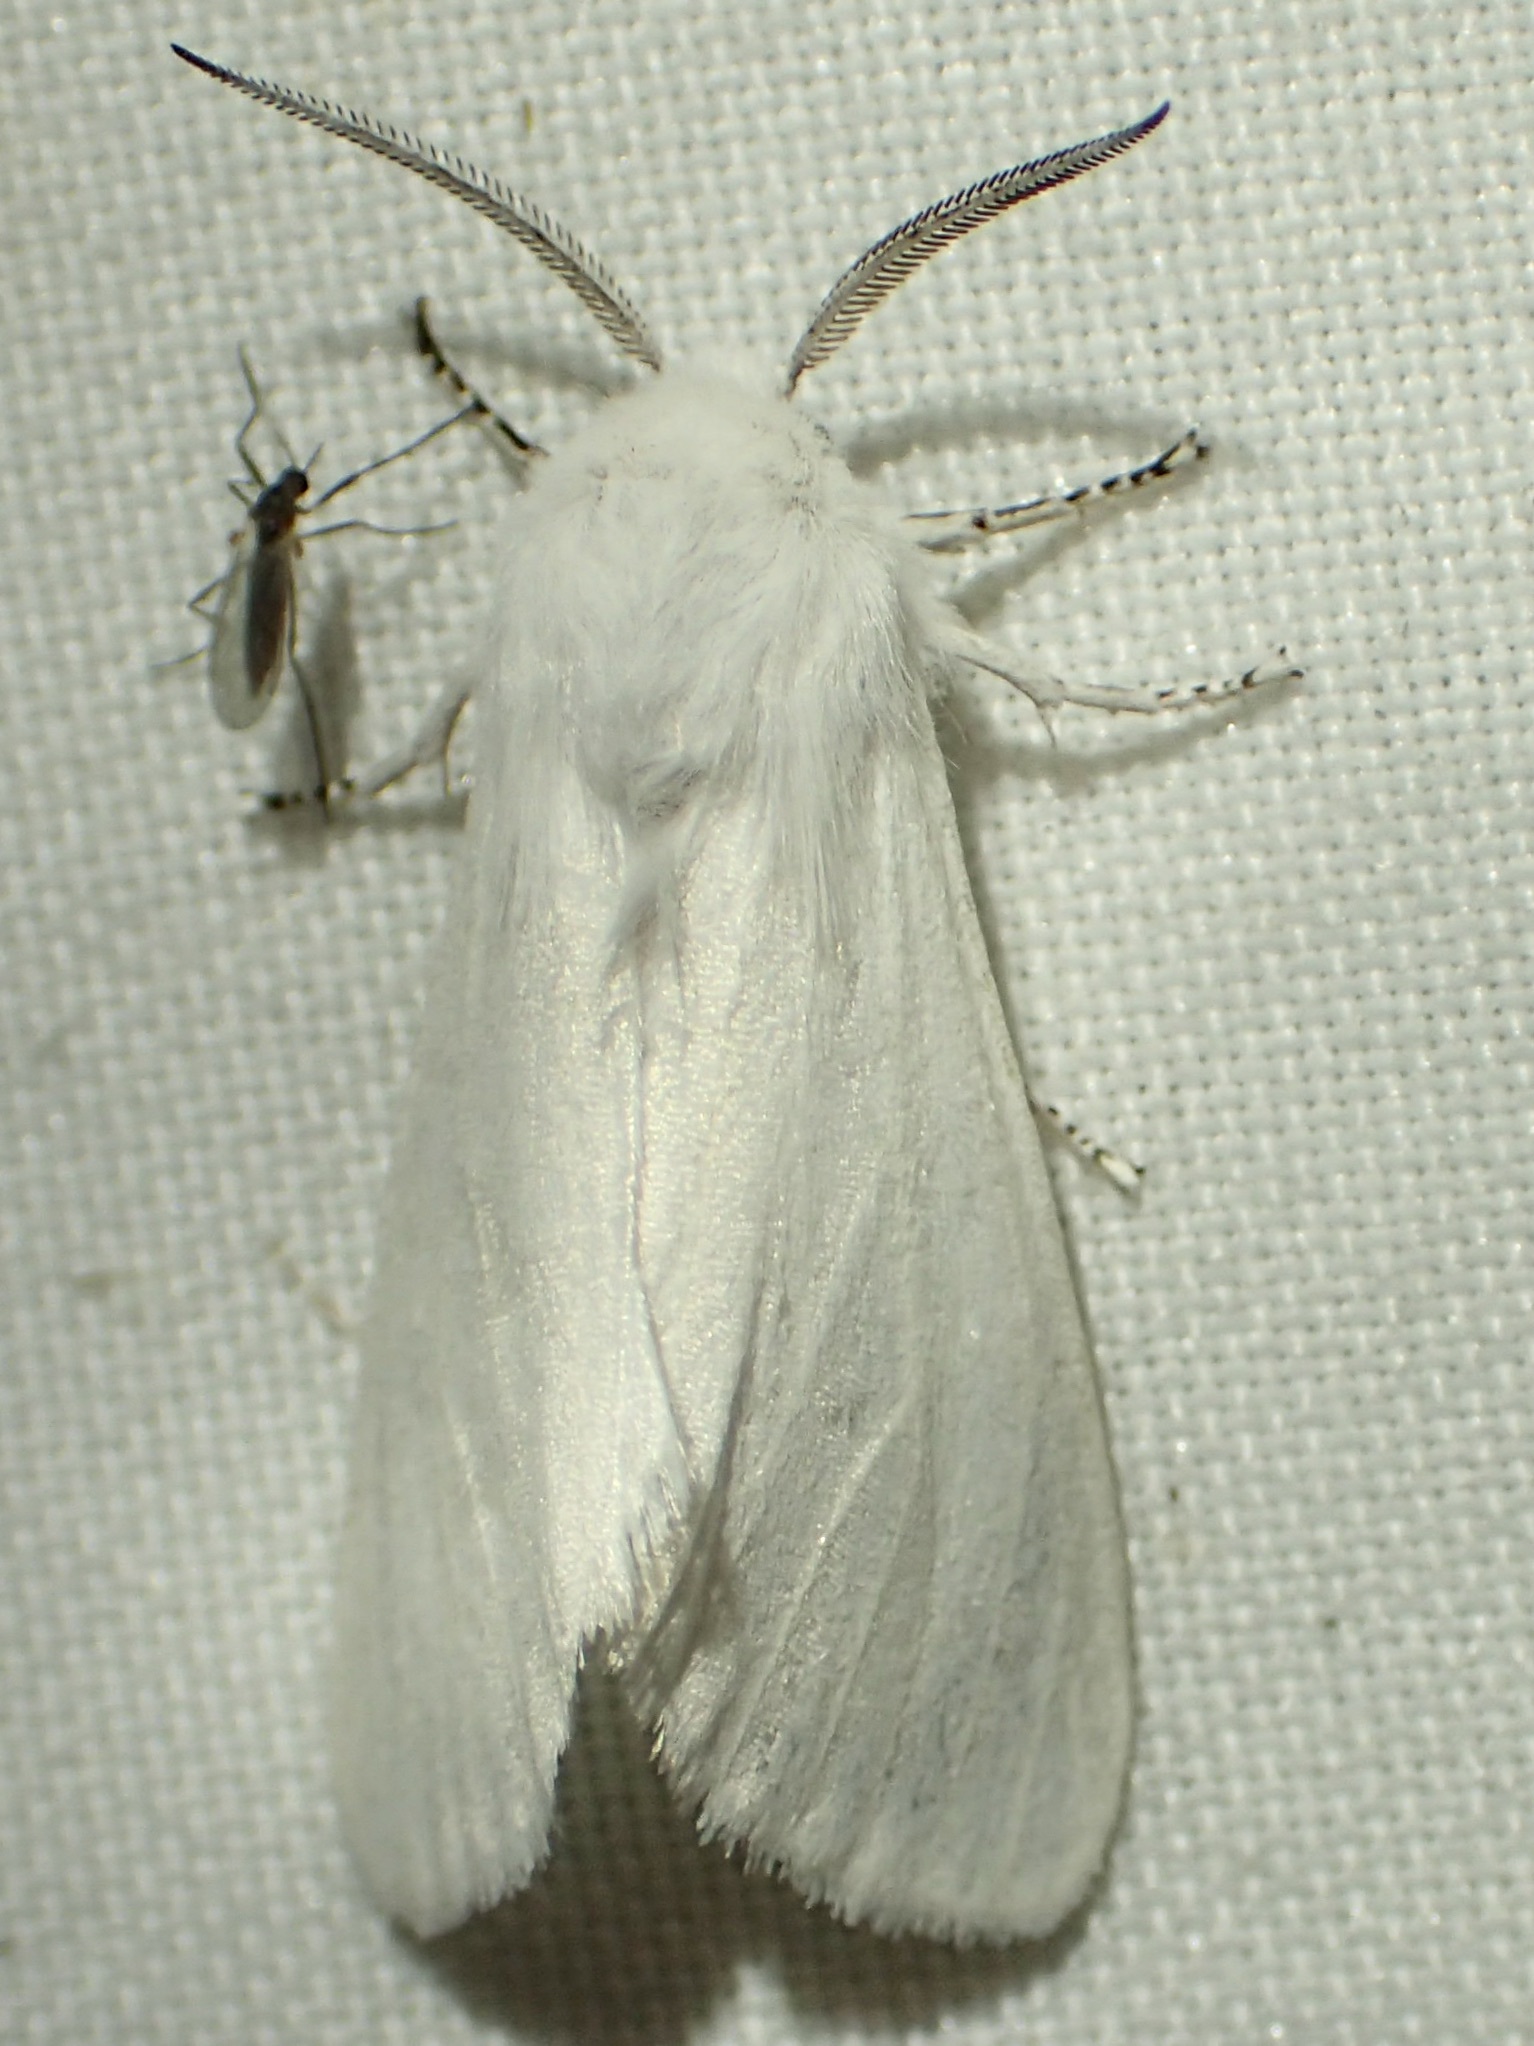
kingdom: Animalia
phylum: Arthropoda
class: Insecta
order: Lepidoptera
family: Erebidae
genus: Hyphantria
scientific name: Hyphantria cunea
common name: American white moth
